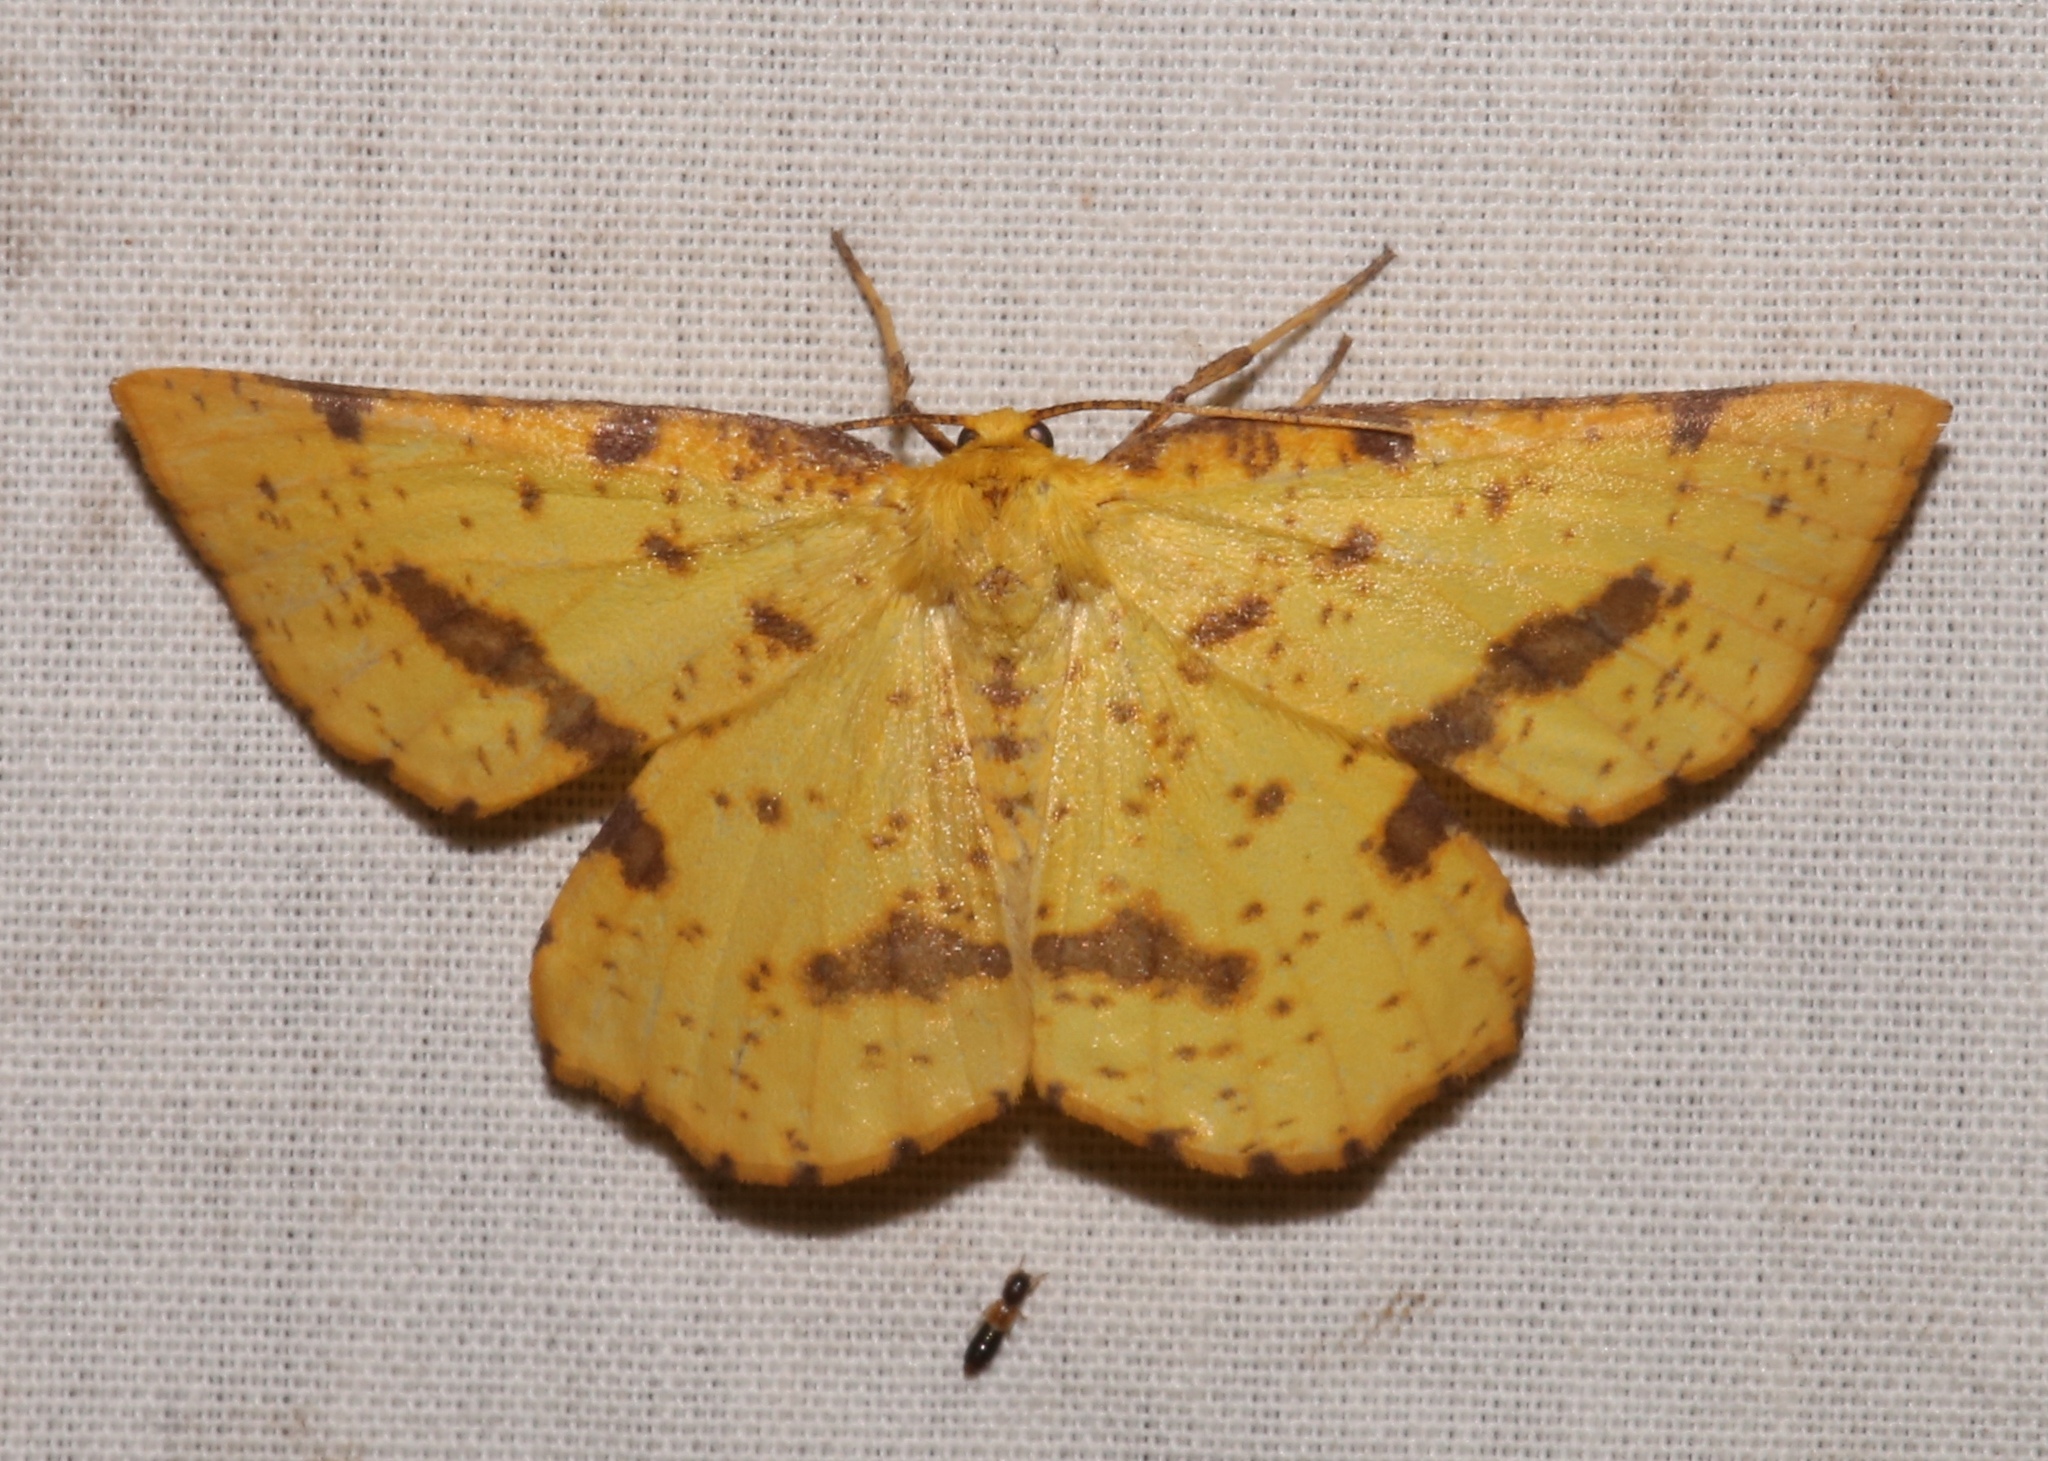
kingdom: Animalia
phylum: Arthropoda
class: Insecta
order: Lepidoptera
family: Geometridae
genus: Xanthotype
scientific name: Xanthotype
